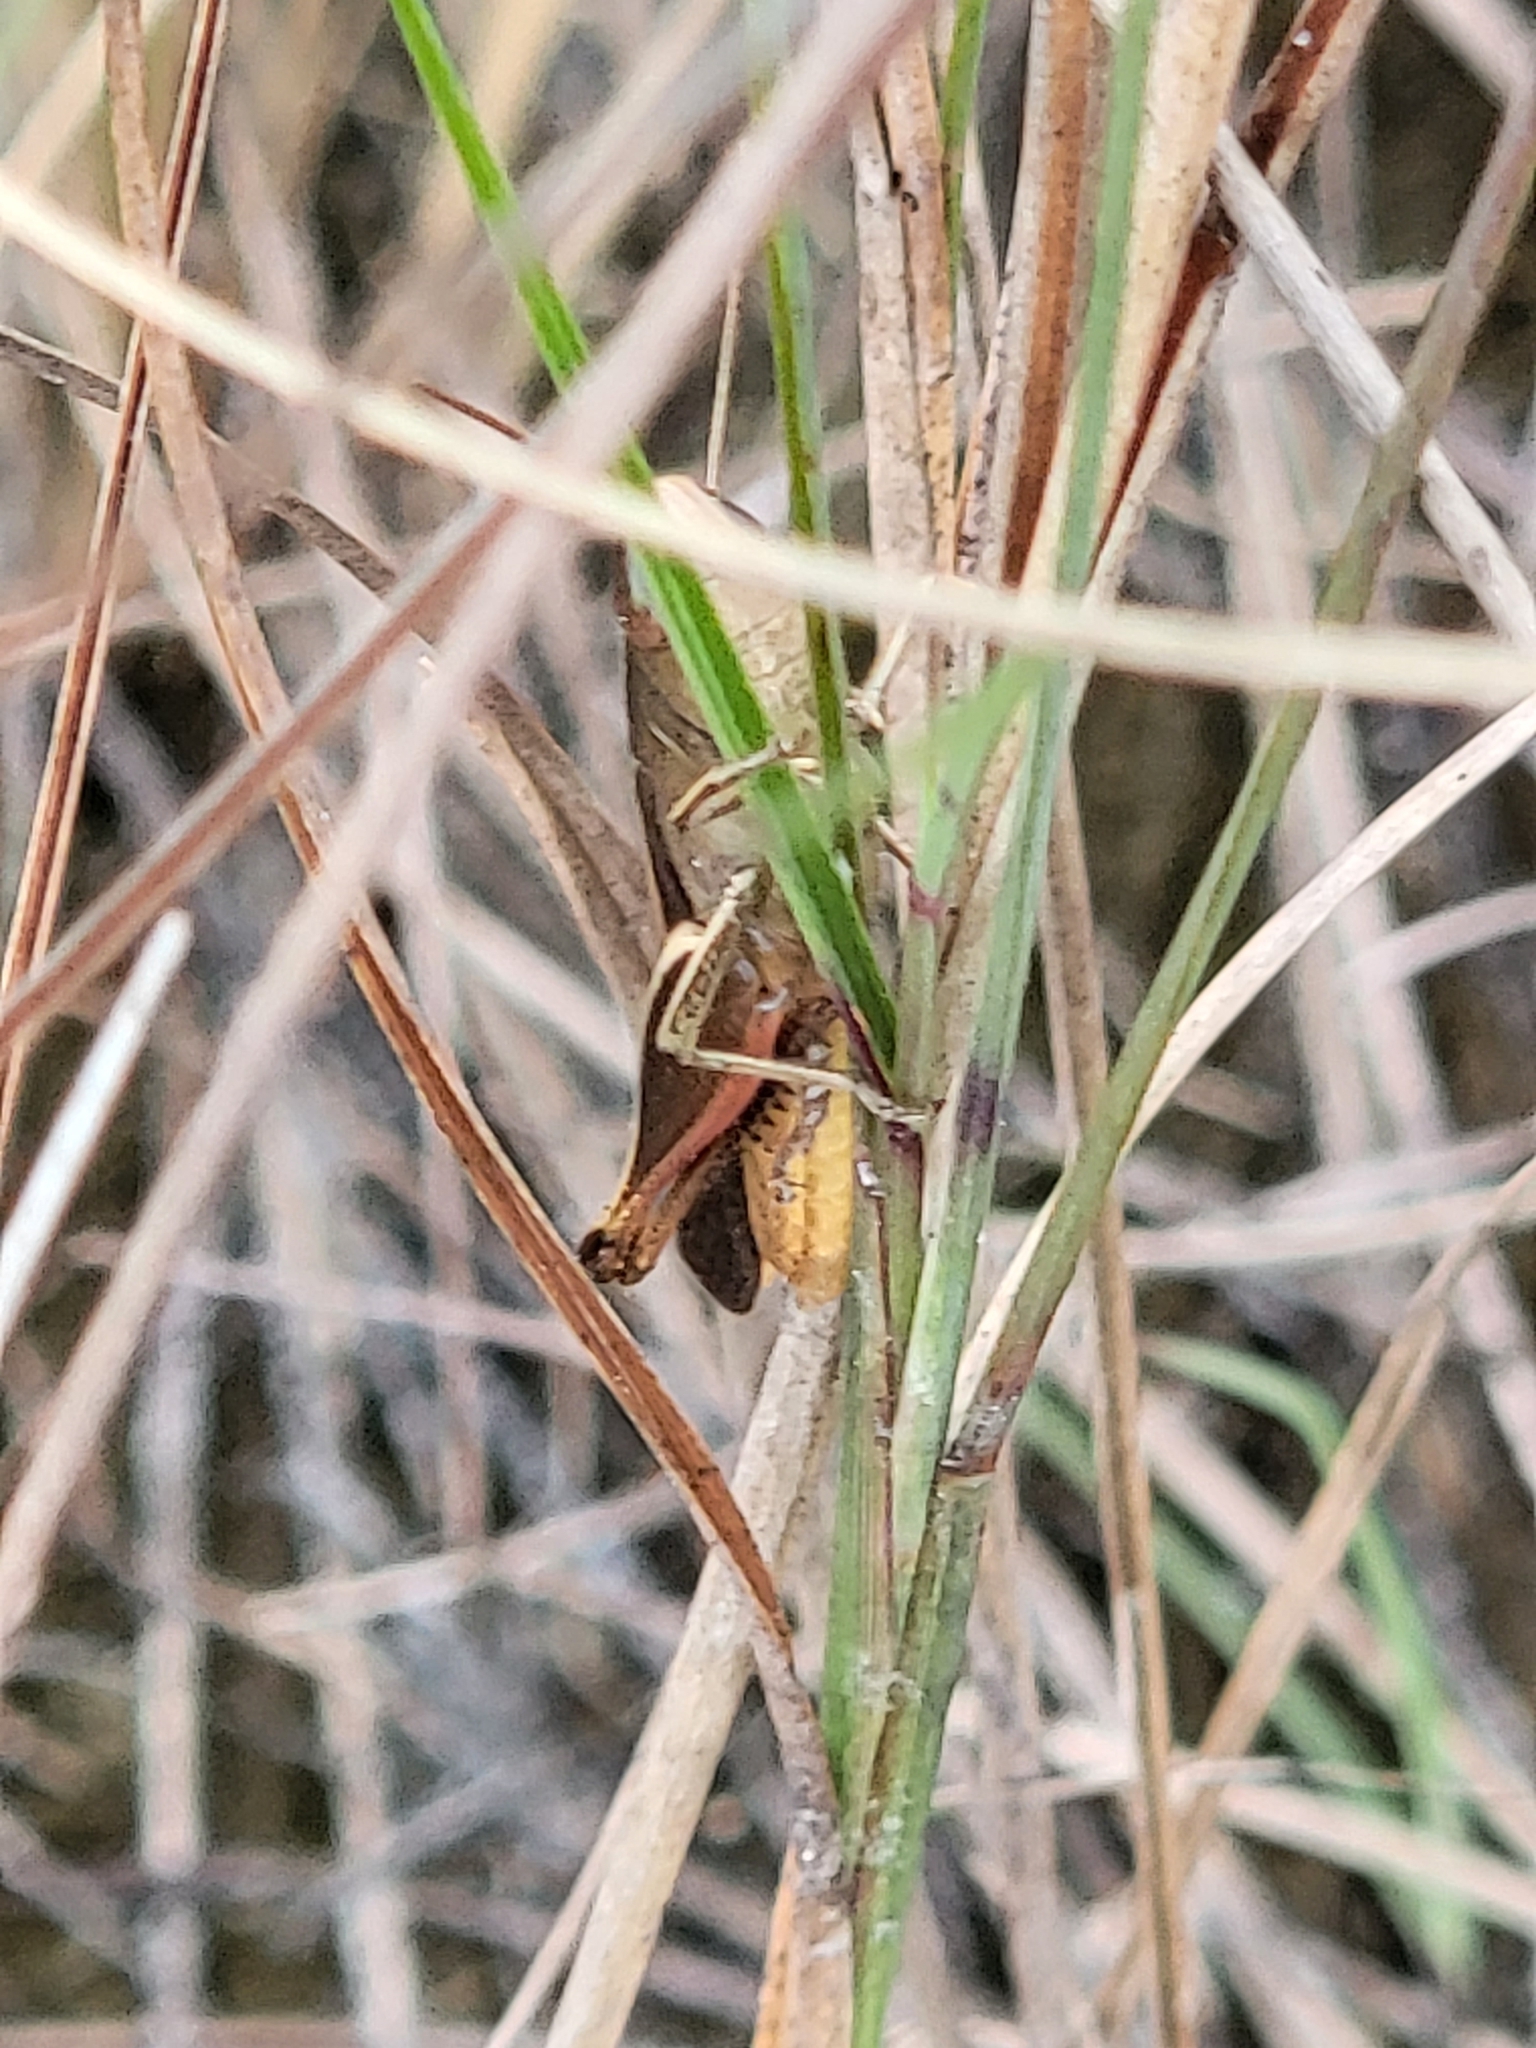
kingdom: Animalia
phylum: Arthropoda
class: Insecta
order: Orthoptera
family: Acrididae
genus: Amblytropidia
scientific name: Amblytropidia mysteca
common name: Brown winter grasshopper
